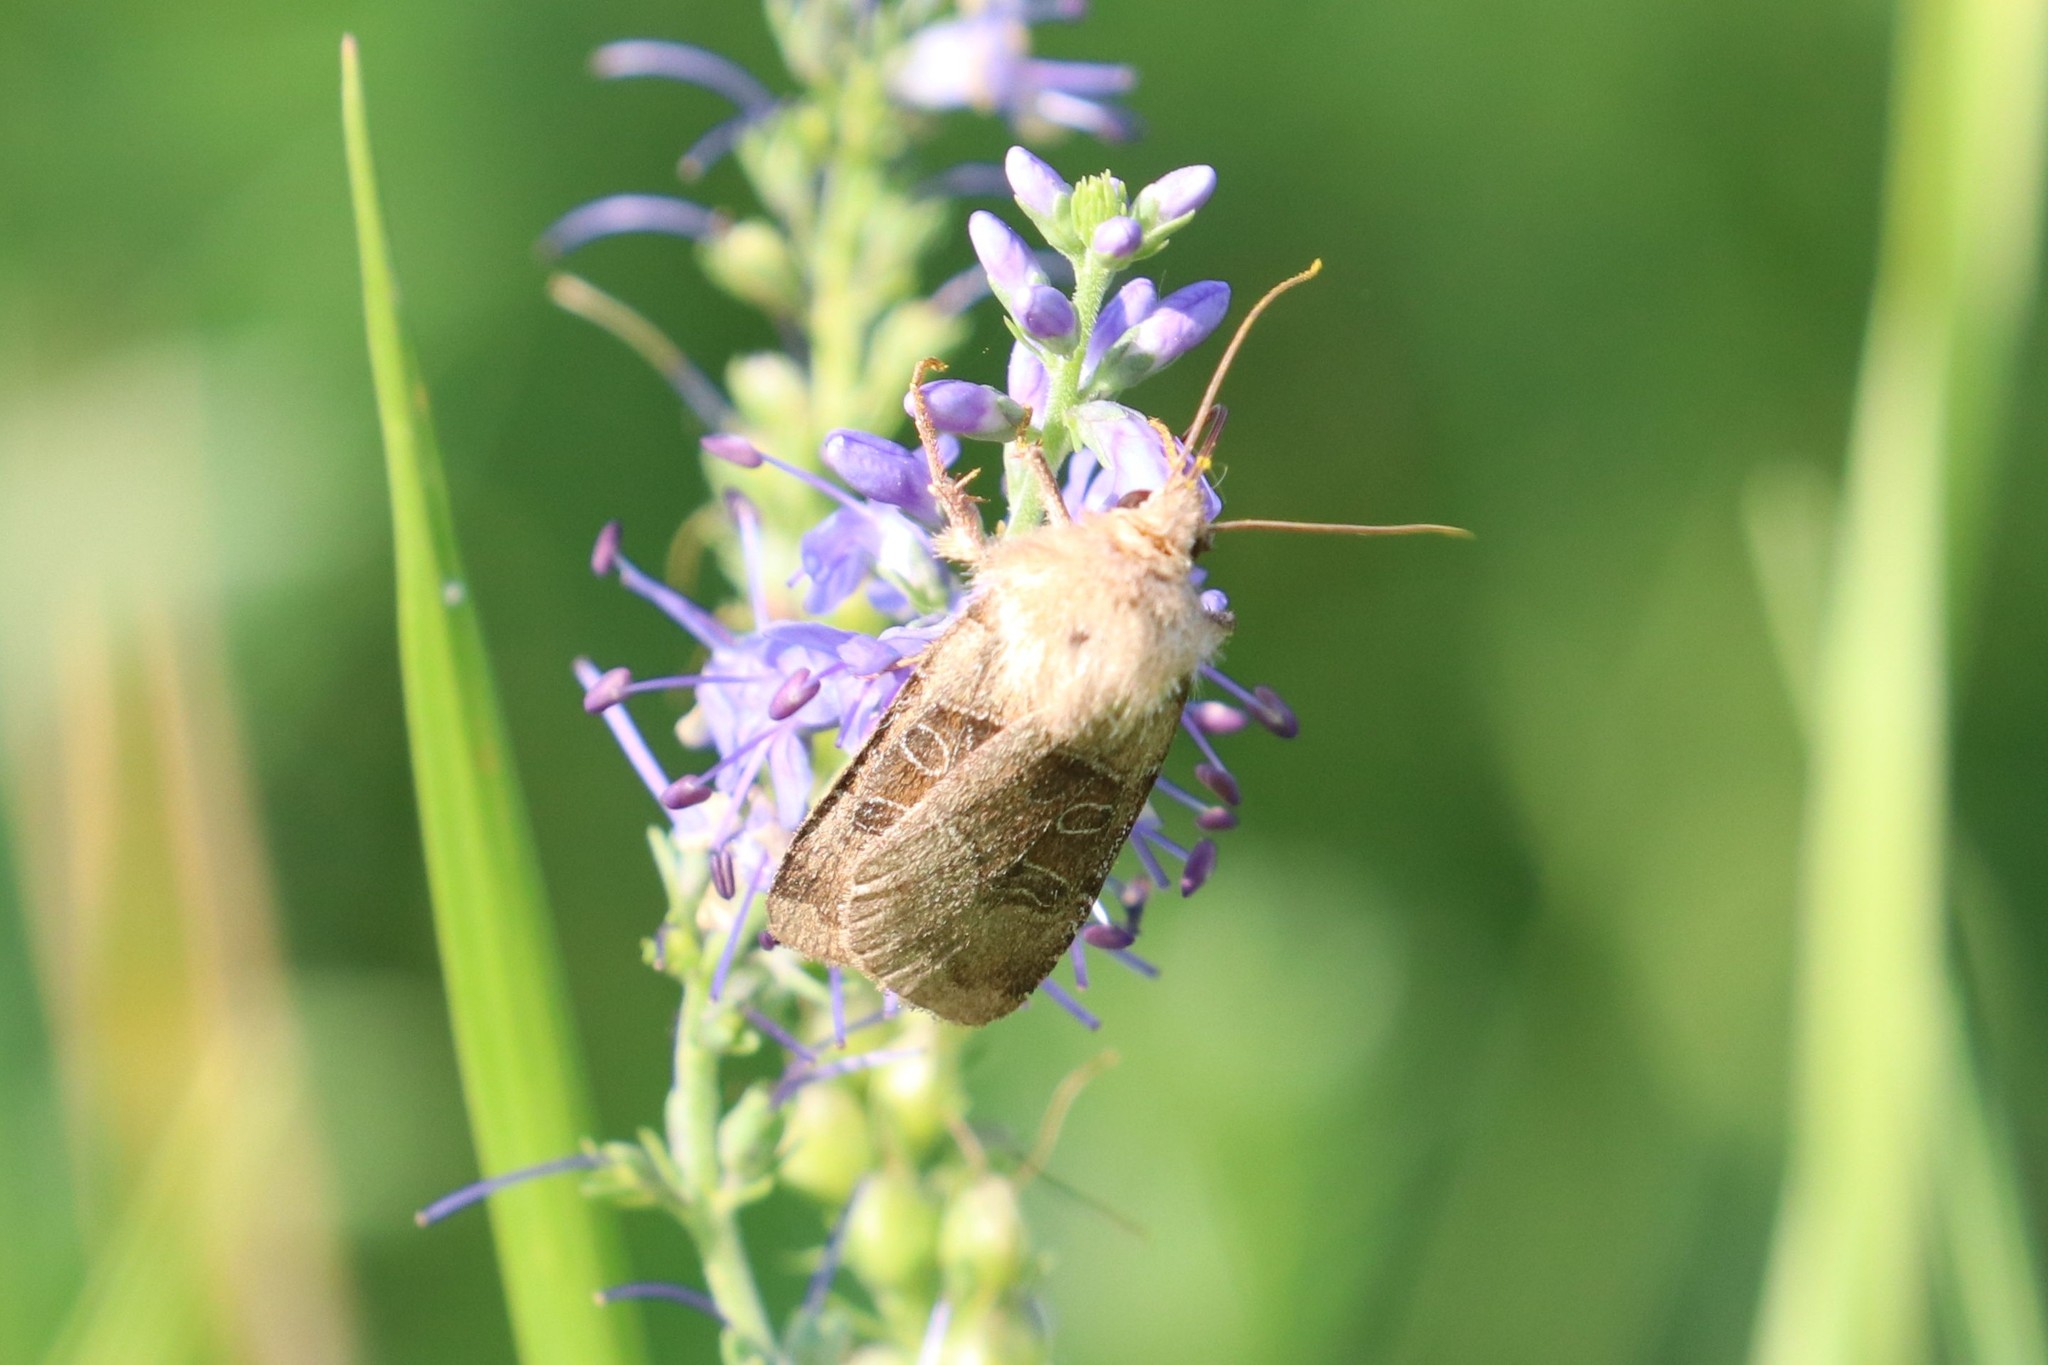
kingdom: Animalia
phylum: Arthropoda
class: Insecta
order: Lepidoptera
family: Noctuidae
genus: Chersotis
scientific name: Chersotis cuprea
